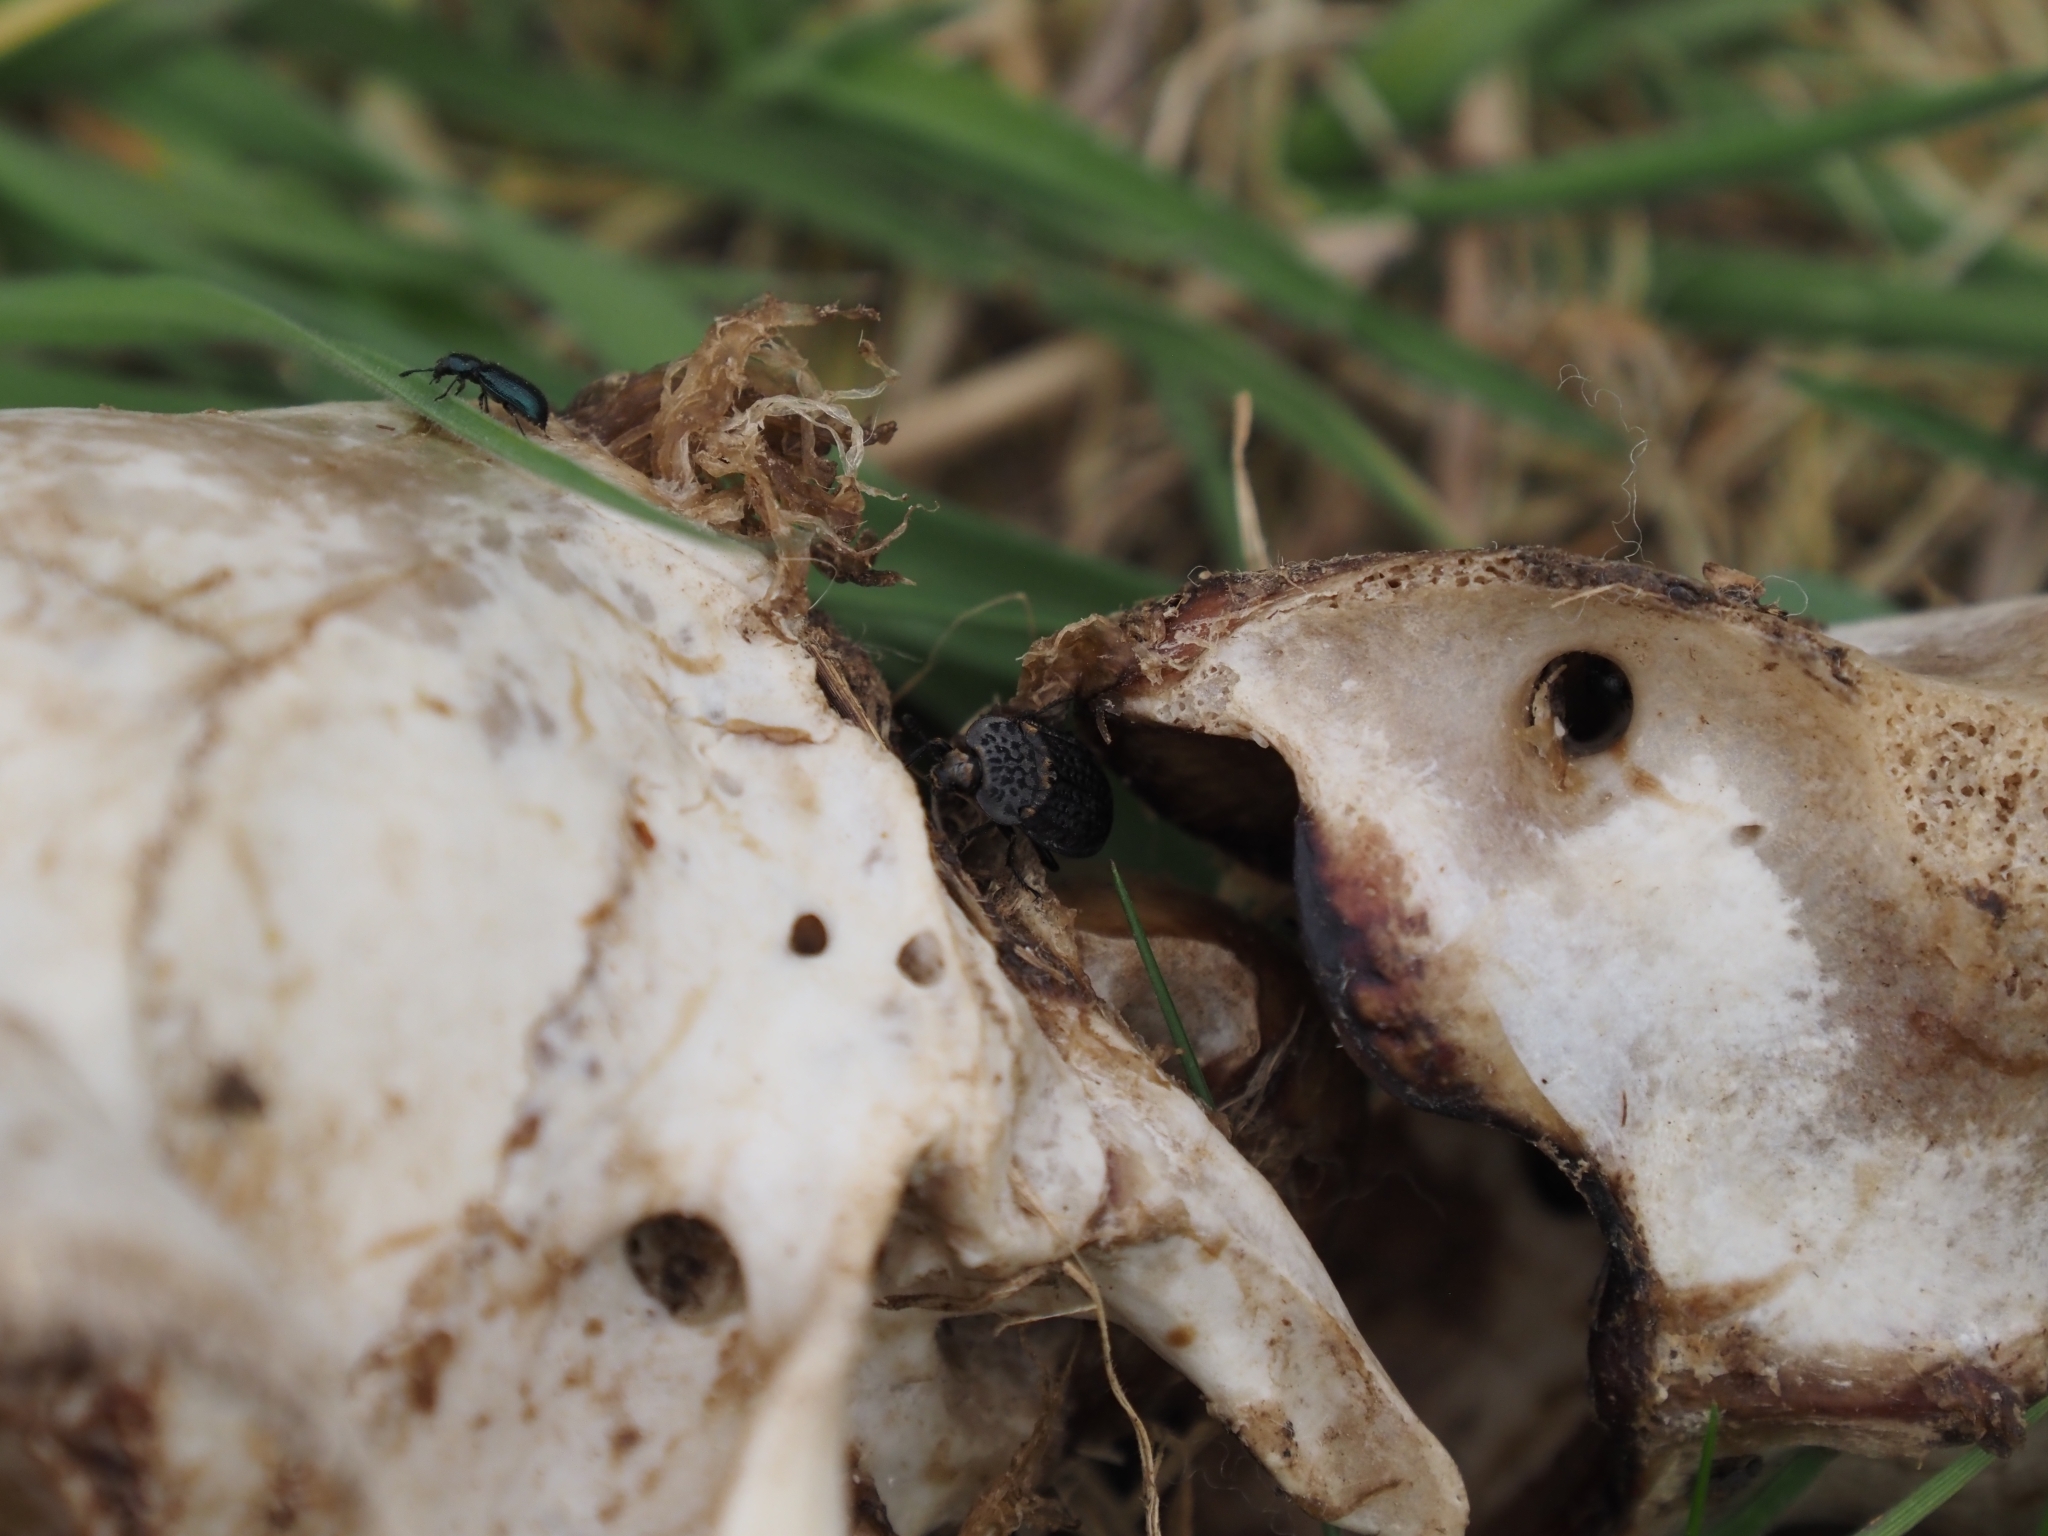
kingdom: Animalia
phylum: Arthropoda
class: Insecta
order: Coleoptera
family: Cleridae
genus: Necrobia
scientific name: Necrobia violacea
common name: Violet checkered beetle
